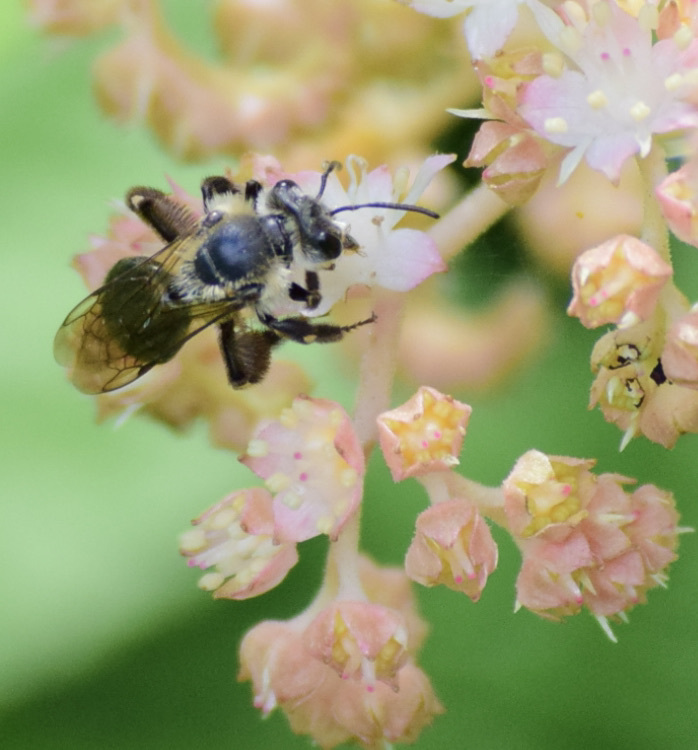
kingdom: Animalia
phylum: Arthropoda
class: Insecta
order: Hymenoptera
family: Andrenidae
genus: Andrena
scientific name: Andrena vicina
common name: Neighborly mining bee
